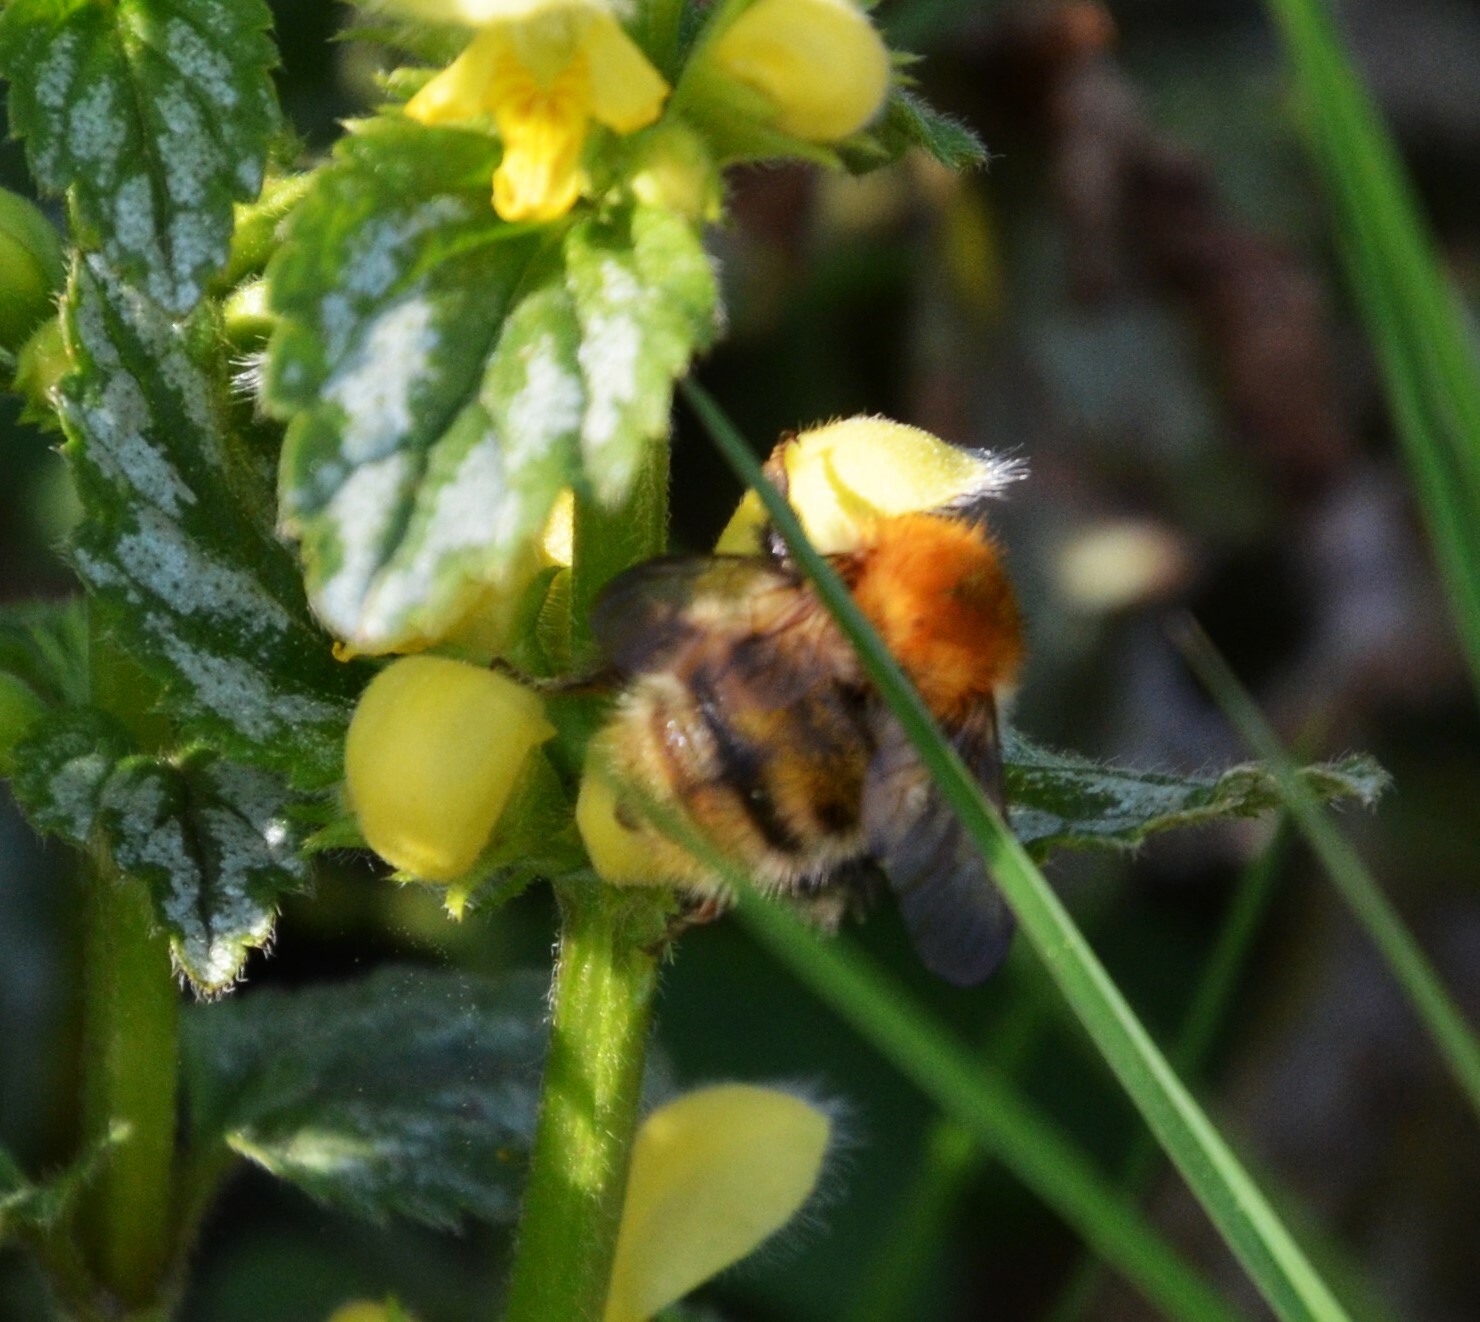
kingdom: Animalia
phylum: Arthropoda
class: Insecta
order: Hymenoptera
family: Apidae
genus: Bombus
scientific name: Bombus pascuorum
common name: Common carder bee
